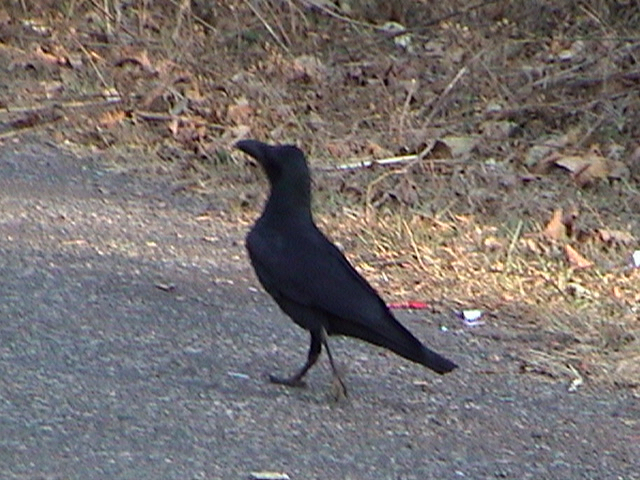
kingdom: Animalia
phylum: Chordata
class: Aves
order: Passeriformes
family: Corvidae
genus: Corvus
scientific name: Corvus macrorhynchos
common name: Large-billed crow
